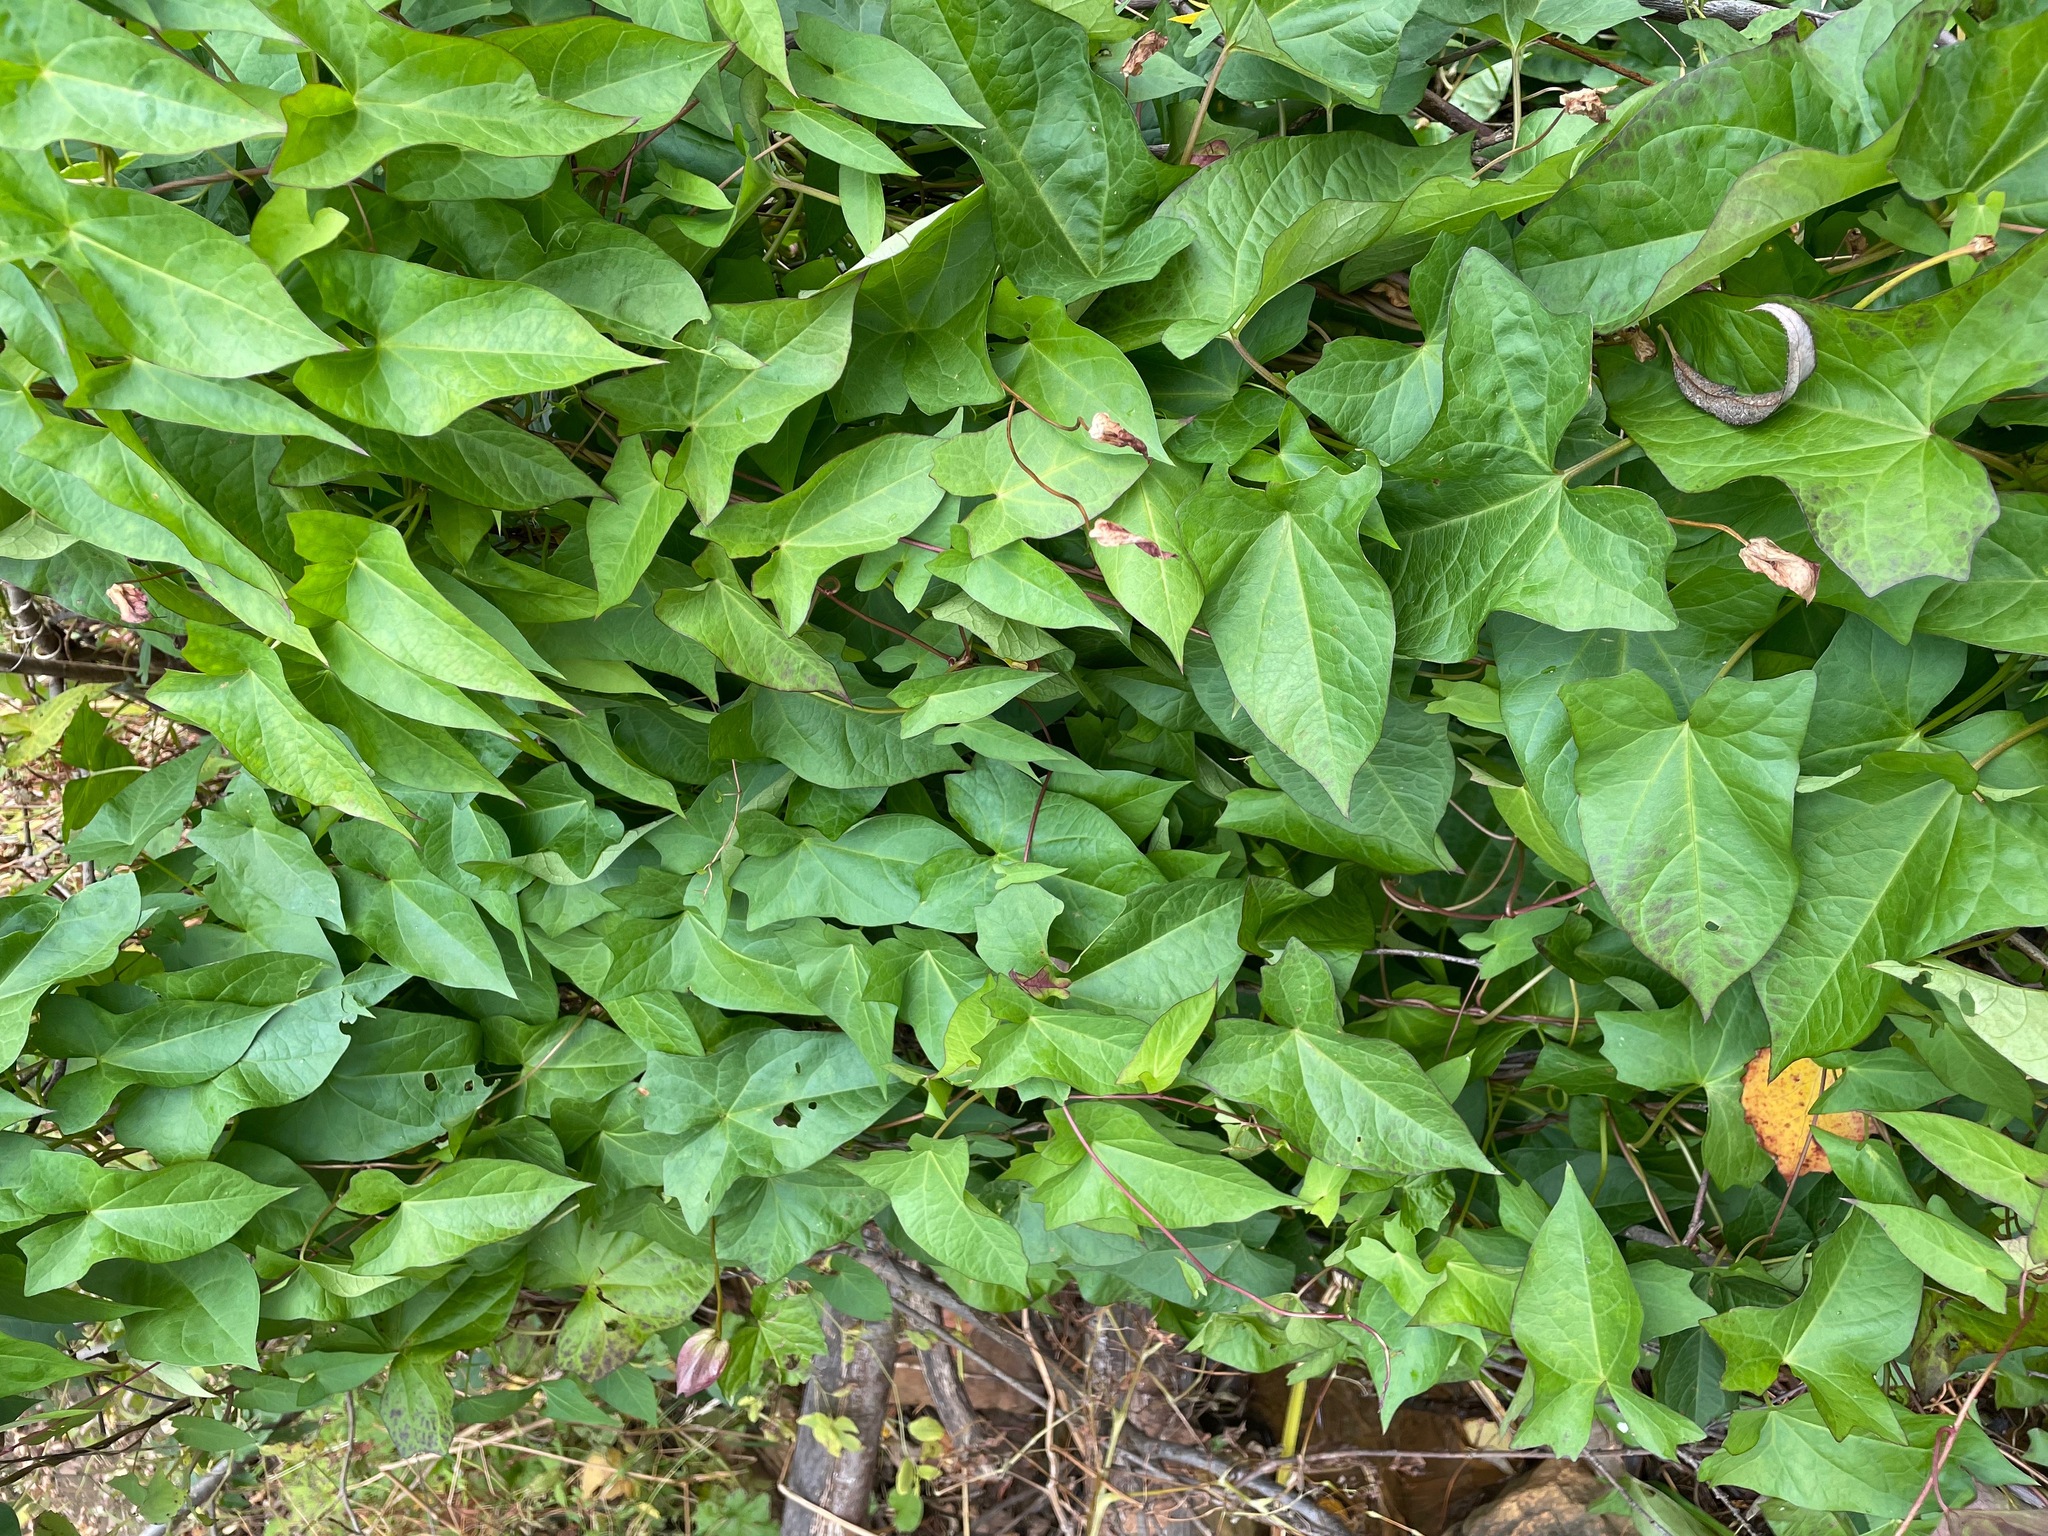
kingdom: Plantae
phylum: Tracheophyta
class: Magnoliopsida
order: Solanales
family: Convolvulaceae
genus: Calystegia
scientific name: Calystegia sepium
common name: Hedge bindweed
